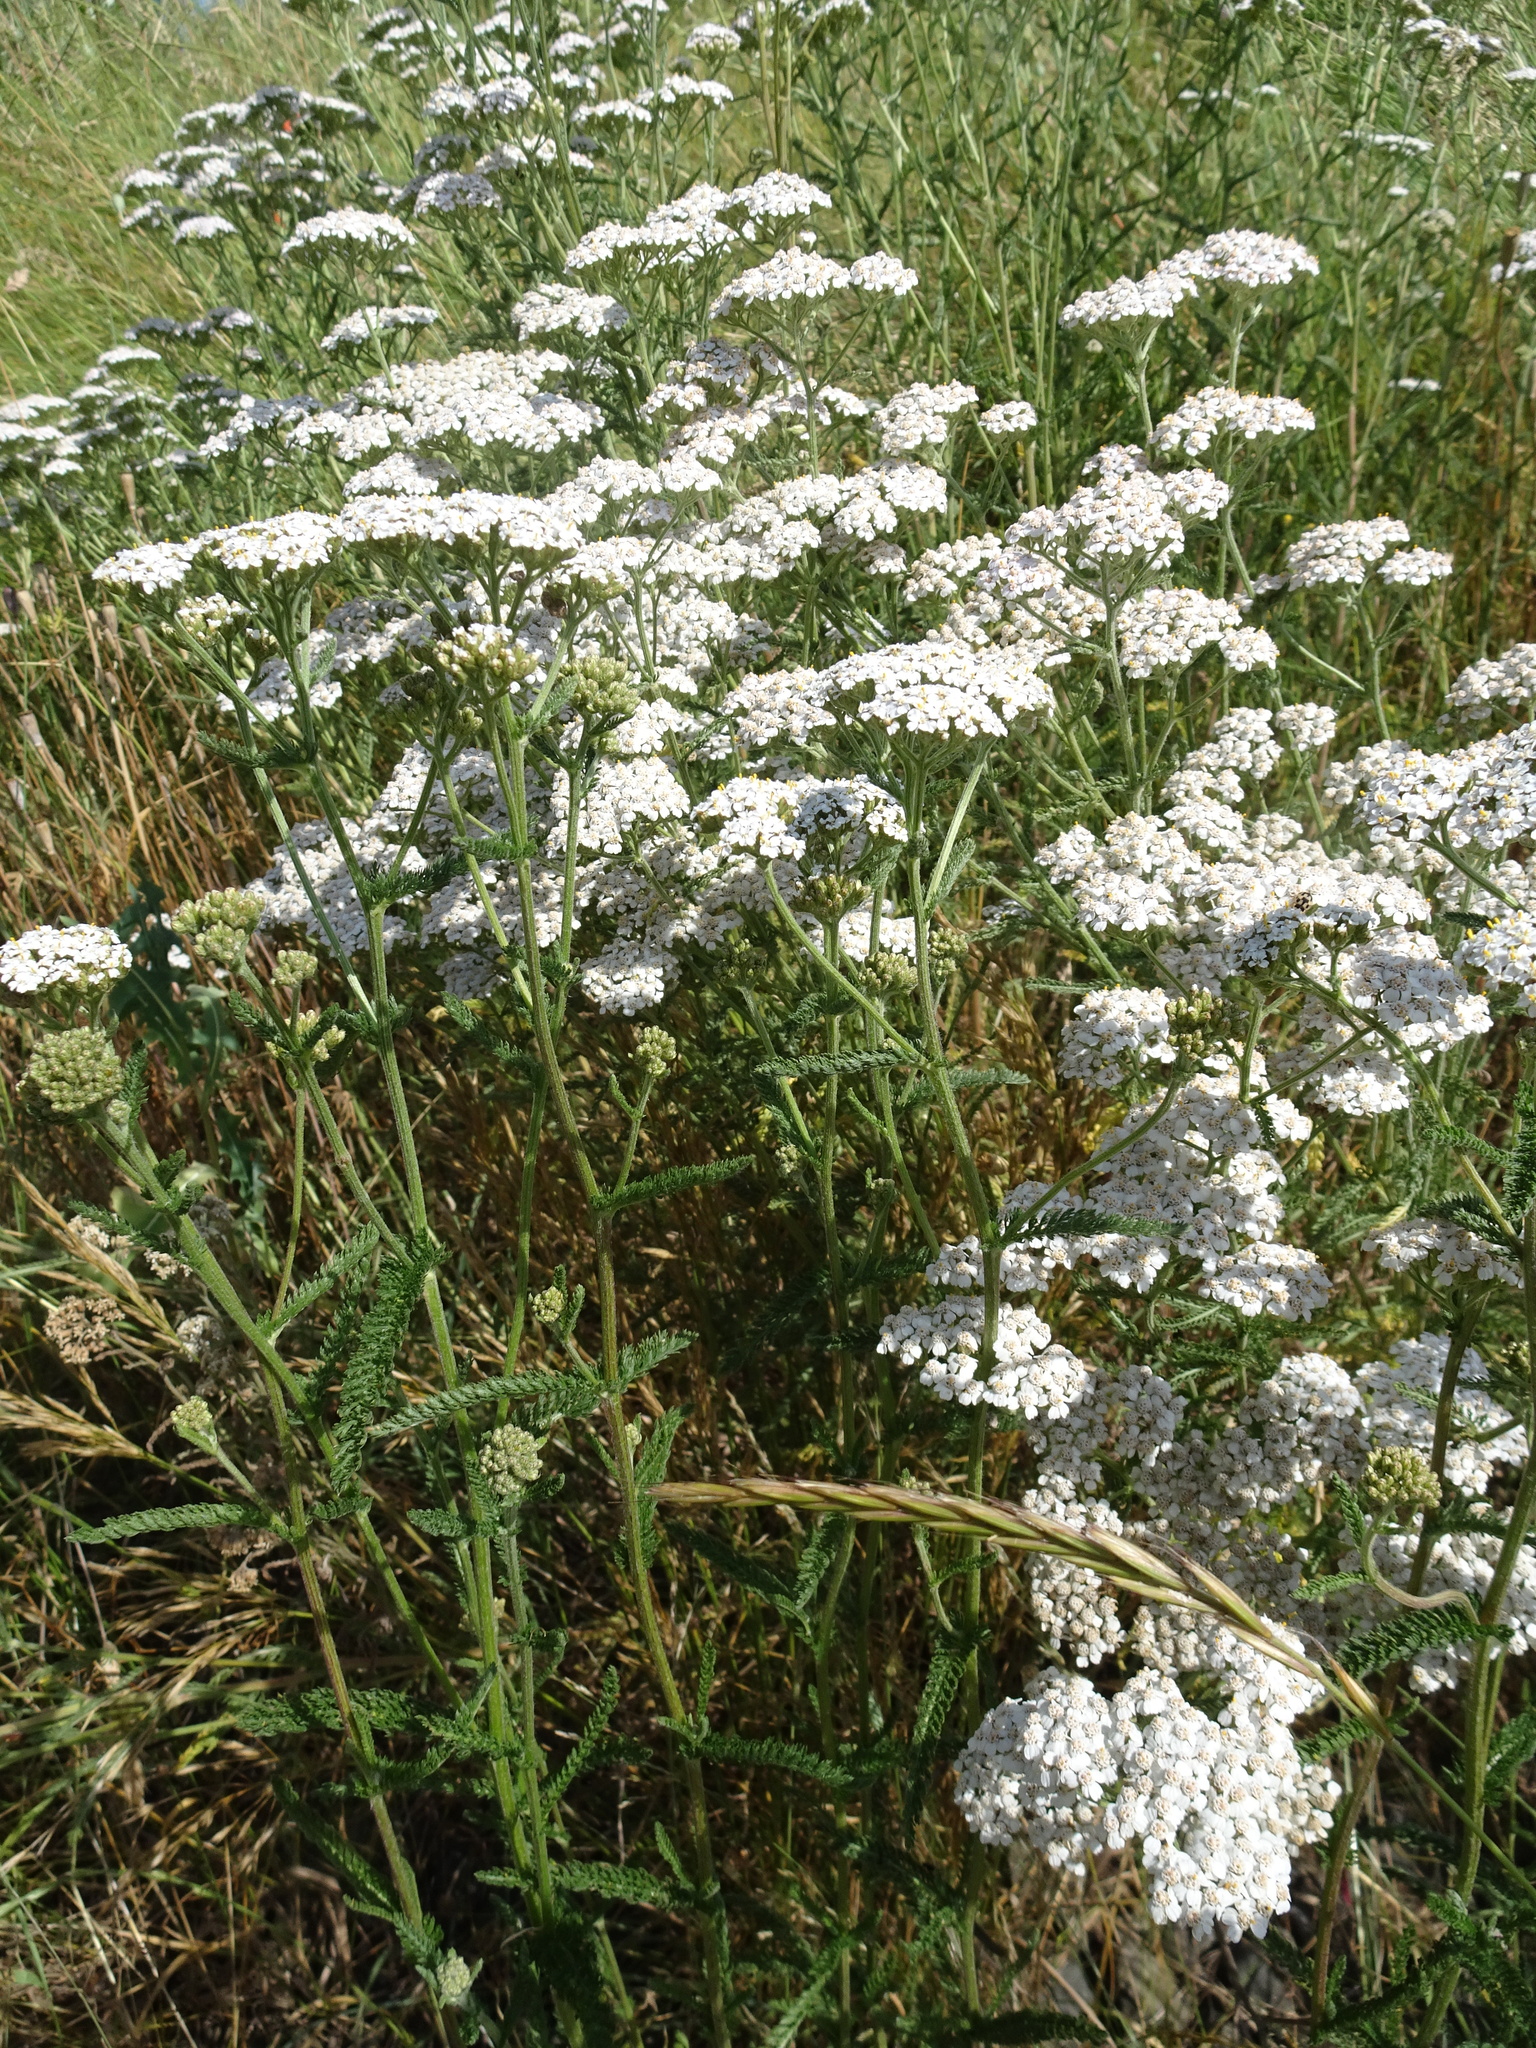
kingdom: Plantae
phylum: Tracheophyta
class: Magnoliopsida
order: Asterales
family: Asteraceae
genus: Achillea
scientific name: Achillea millefolium
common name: Yarrow
